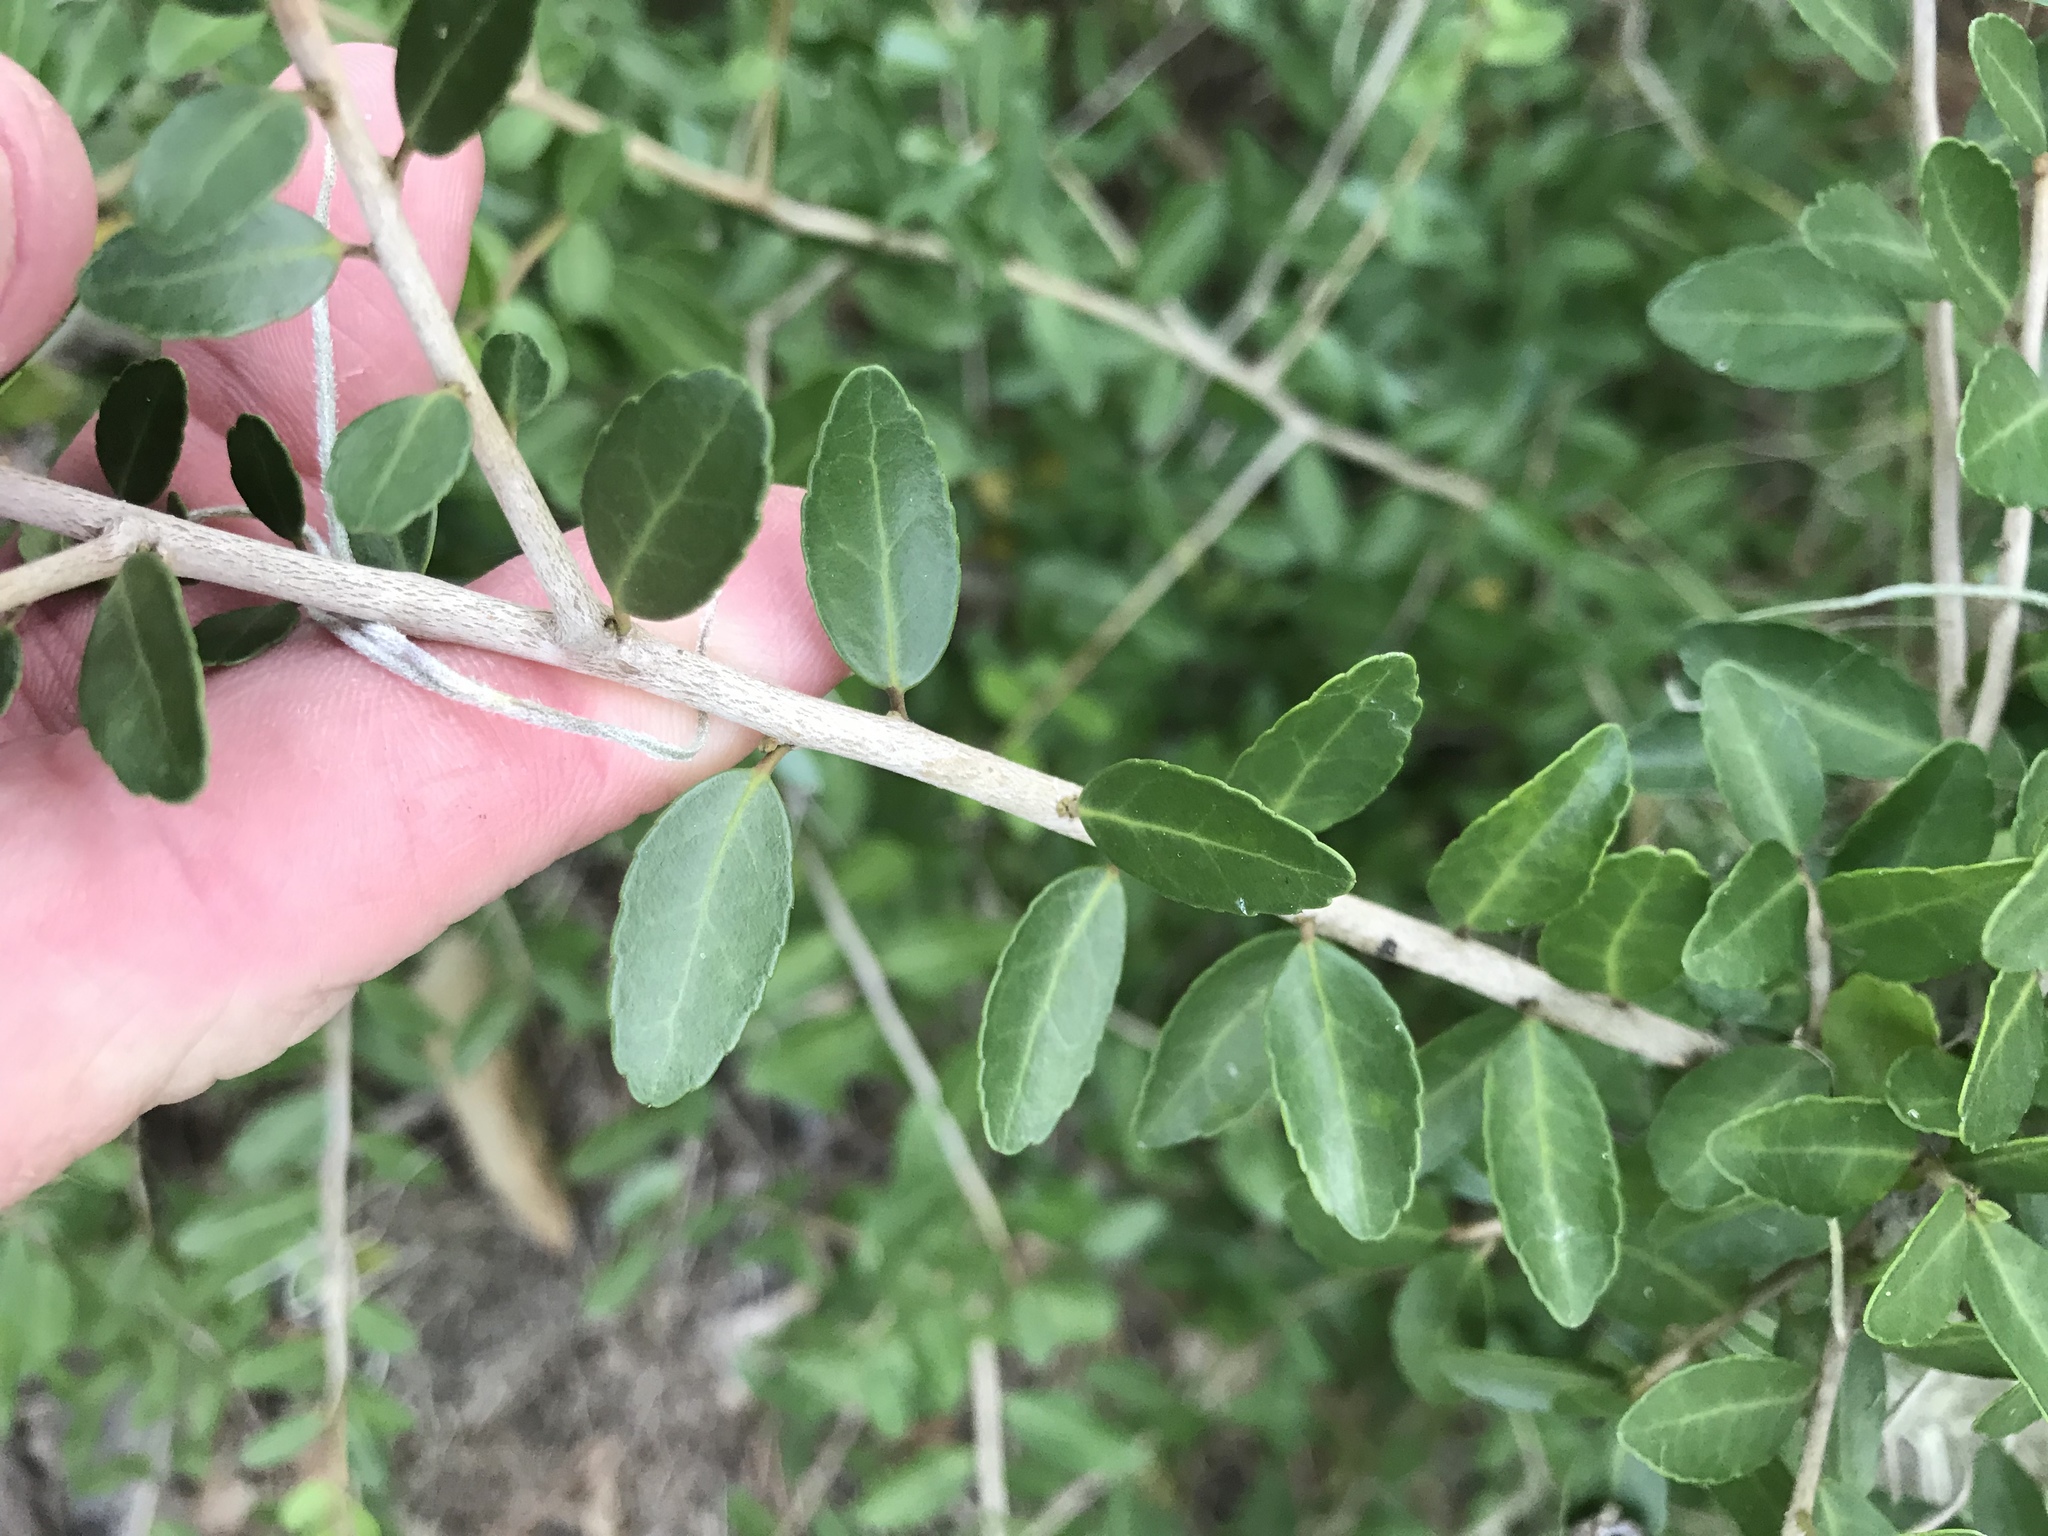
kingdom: Plantae
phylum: Tracheophyta
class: Magnoliopsida
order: Aquifoliales
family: Aquifoliaceae
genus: Ilex
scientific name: Ilex vomitoria
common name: Yaupon holly
